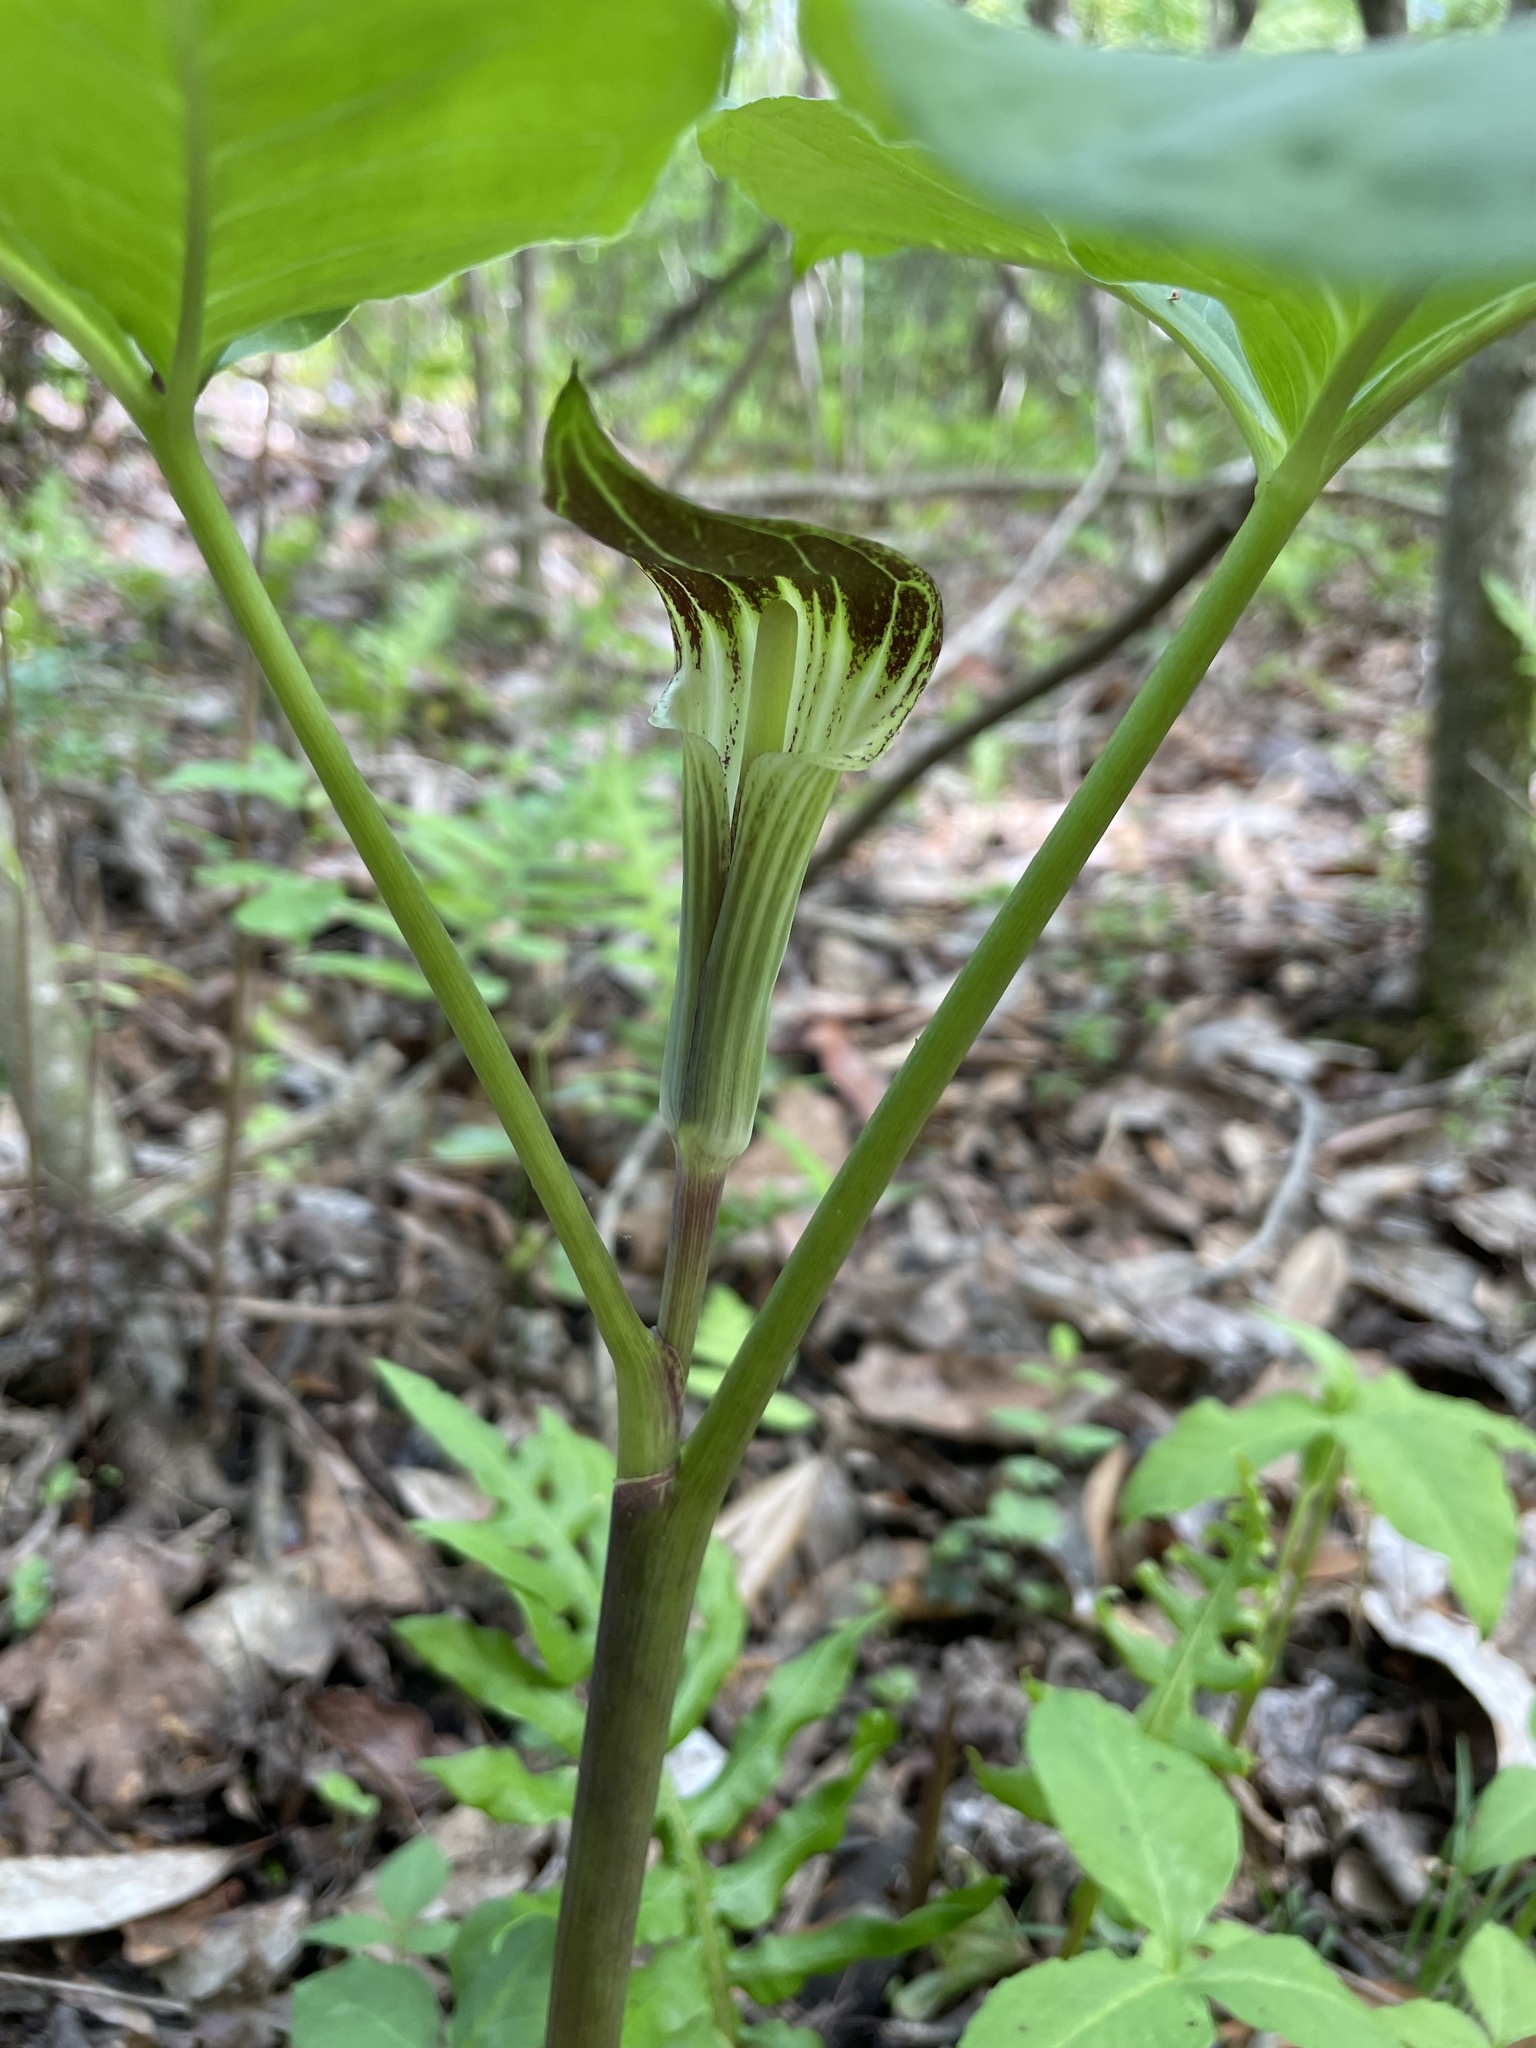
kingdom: Plantae
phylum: Tracheophyta
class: Liliopsida
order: Alismatales
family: Araceae
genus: Arisaema
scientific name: Arisaema triphyllum
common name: Jack-in-the-pulpit
